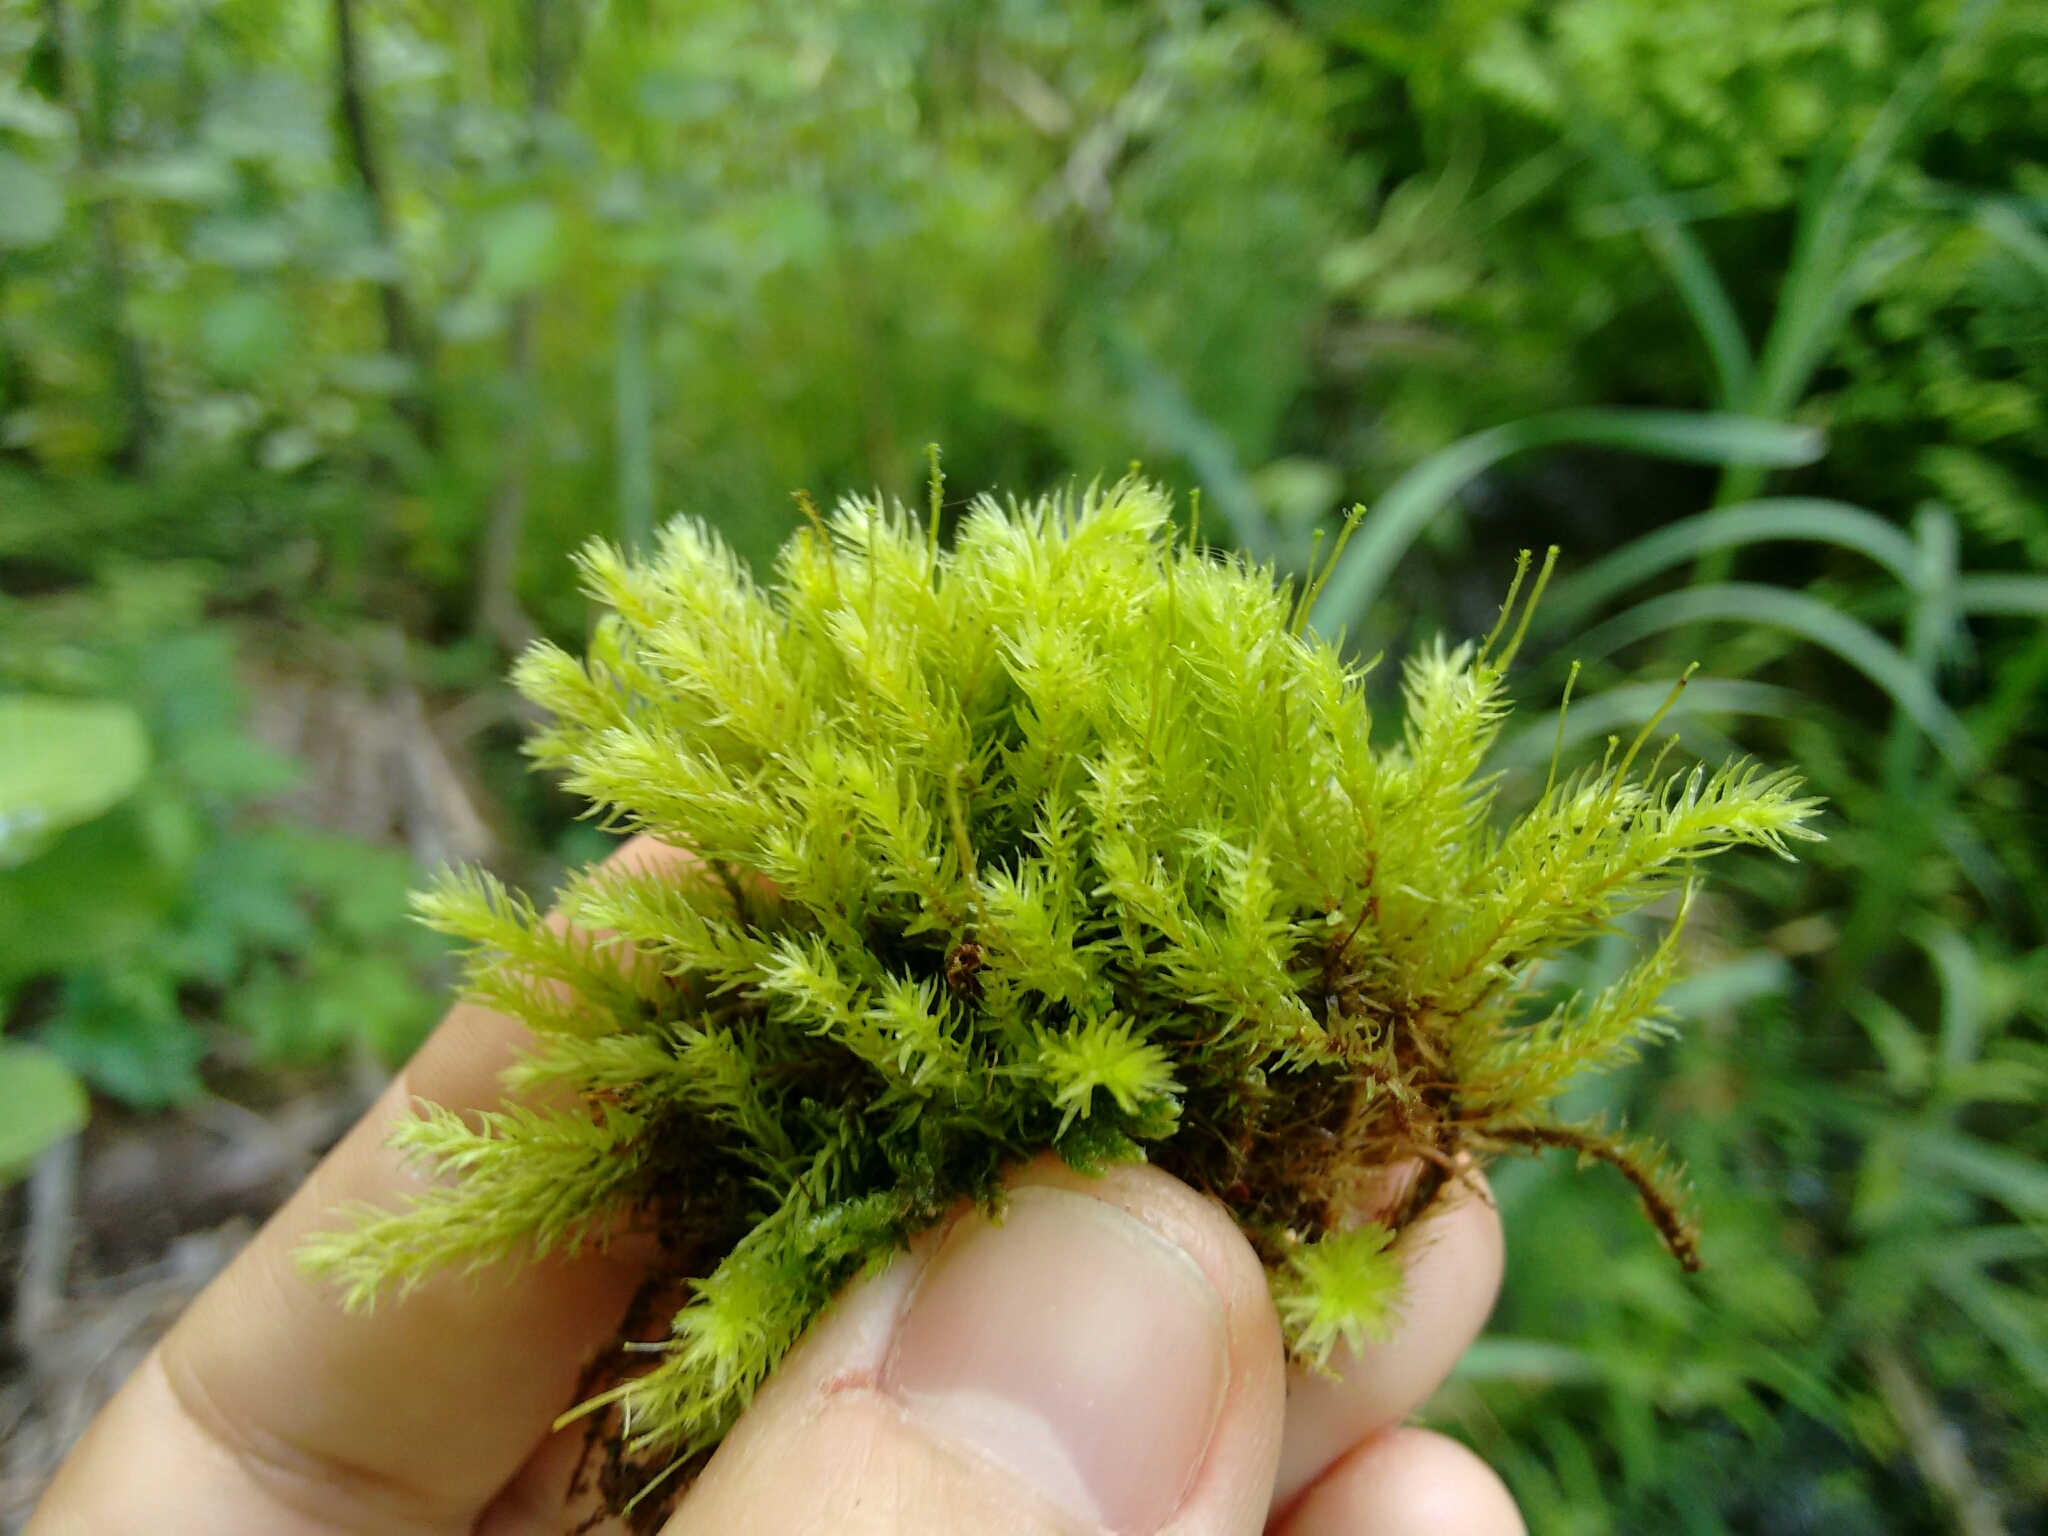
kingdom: Plantae
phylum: Bryophyta
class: Bryopsida
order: Aulacomniales
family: Aulacomniaceae
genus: Aulacomnium
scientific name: Aulacomnium palustre
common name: Bog groove-moss
